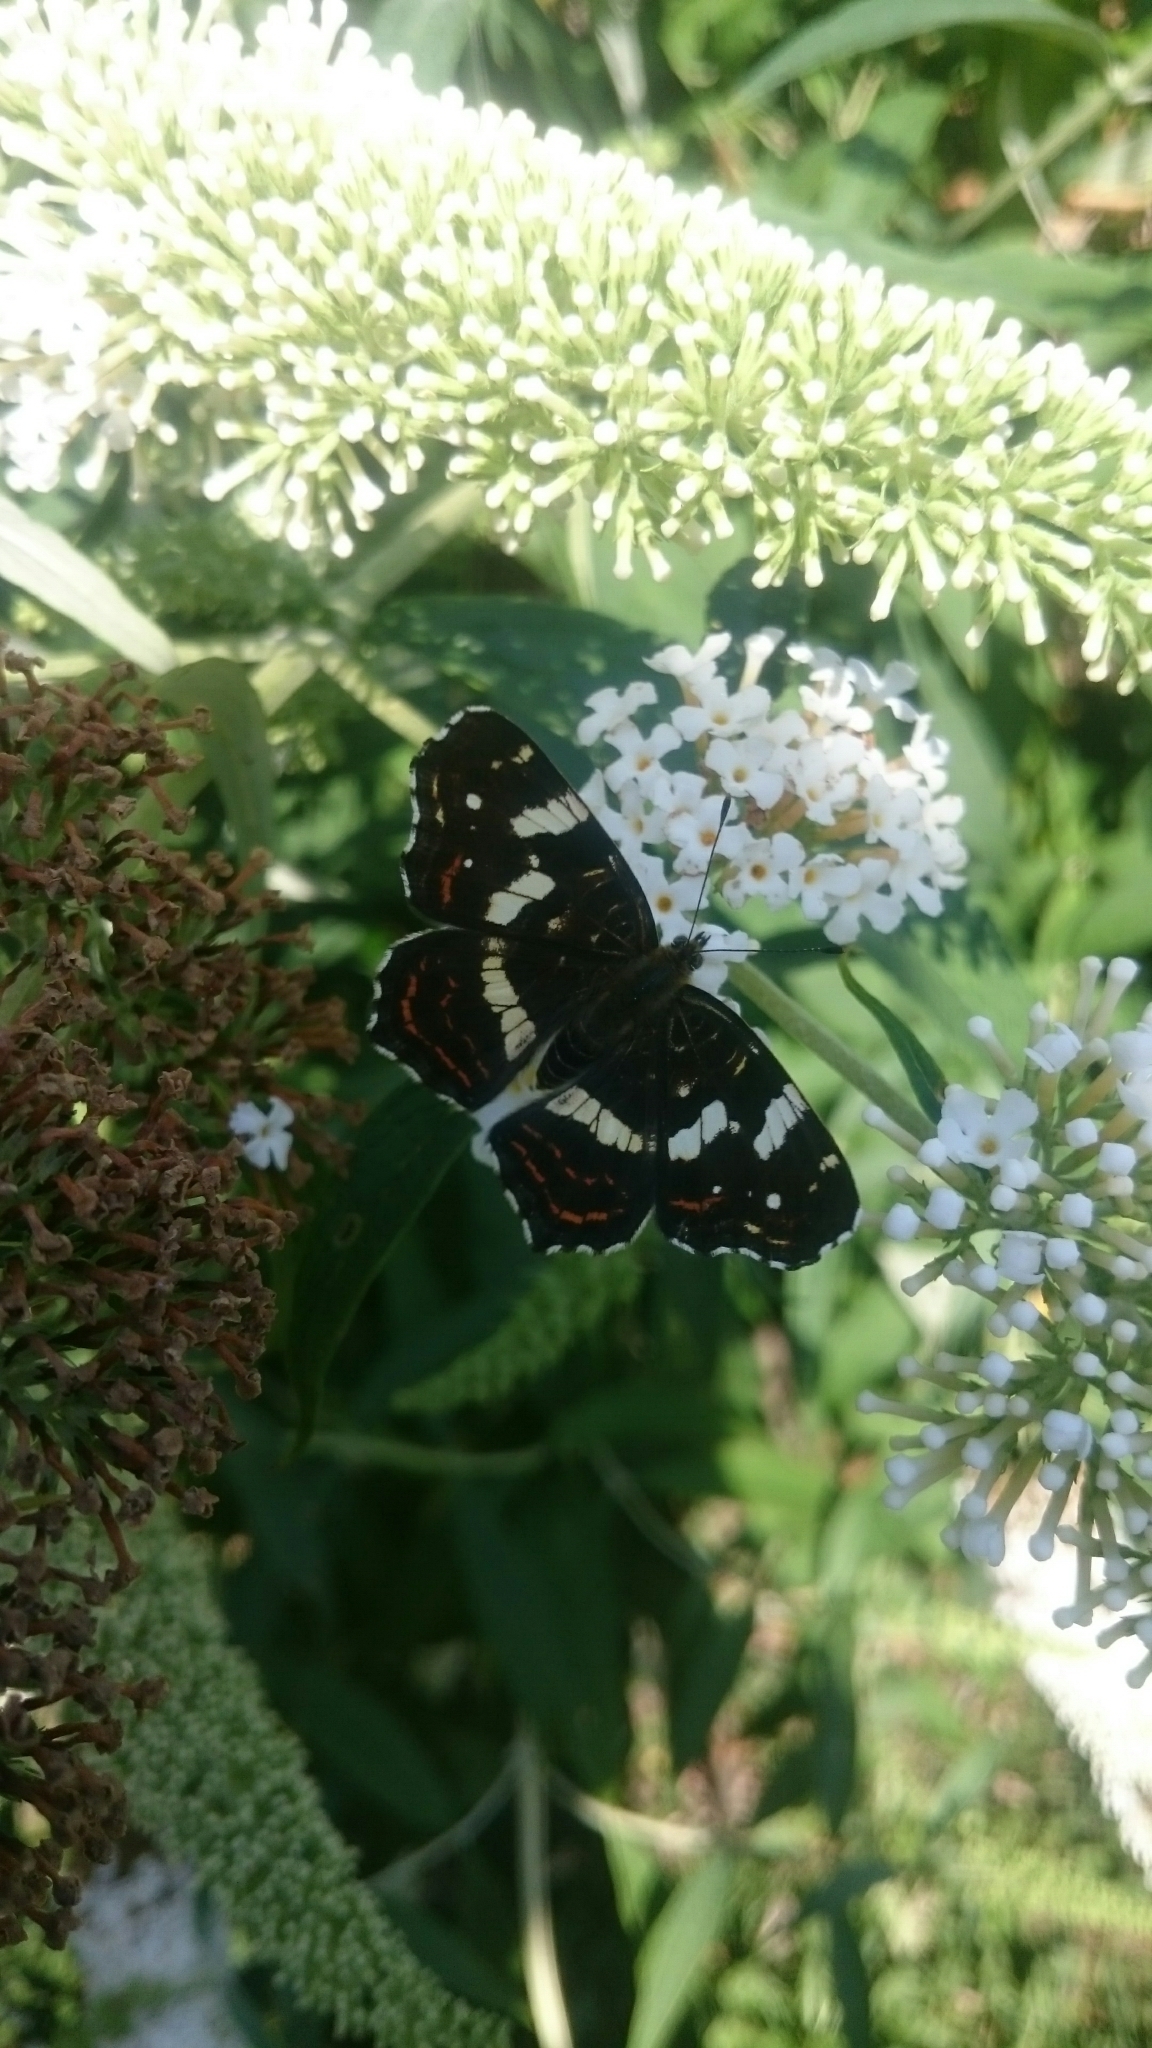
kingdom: Animalia
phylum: Arthropoda
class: Insecta
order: Lepidoptera
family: Nymphalidae
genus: Araschnia
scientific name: Araschnia levana
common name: Map butterfly
